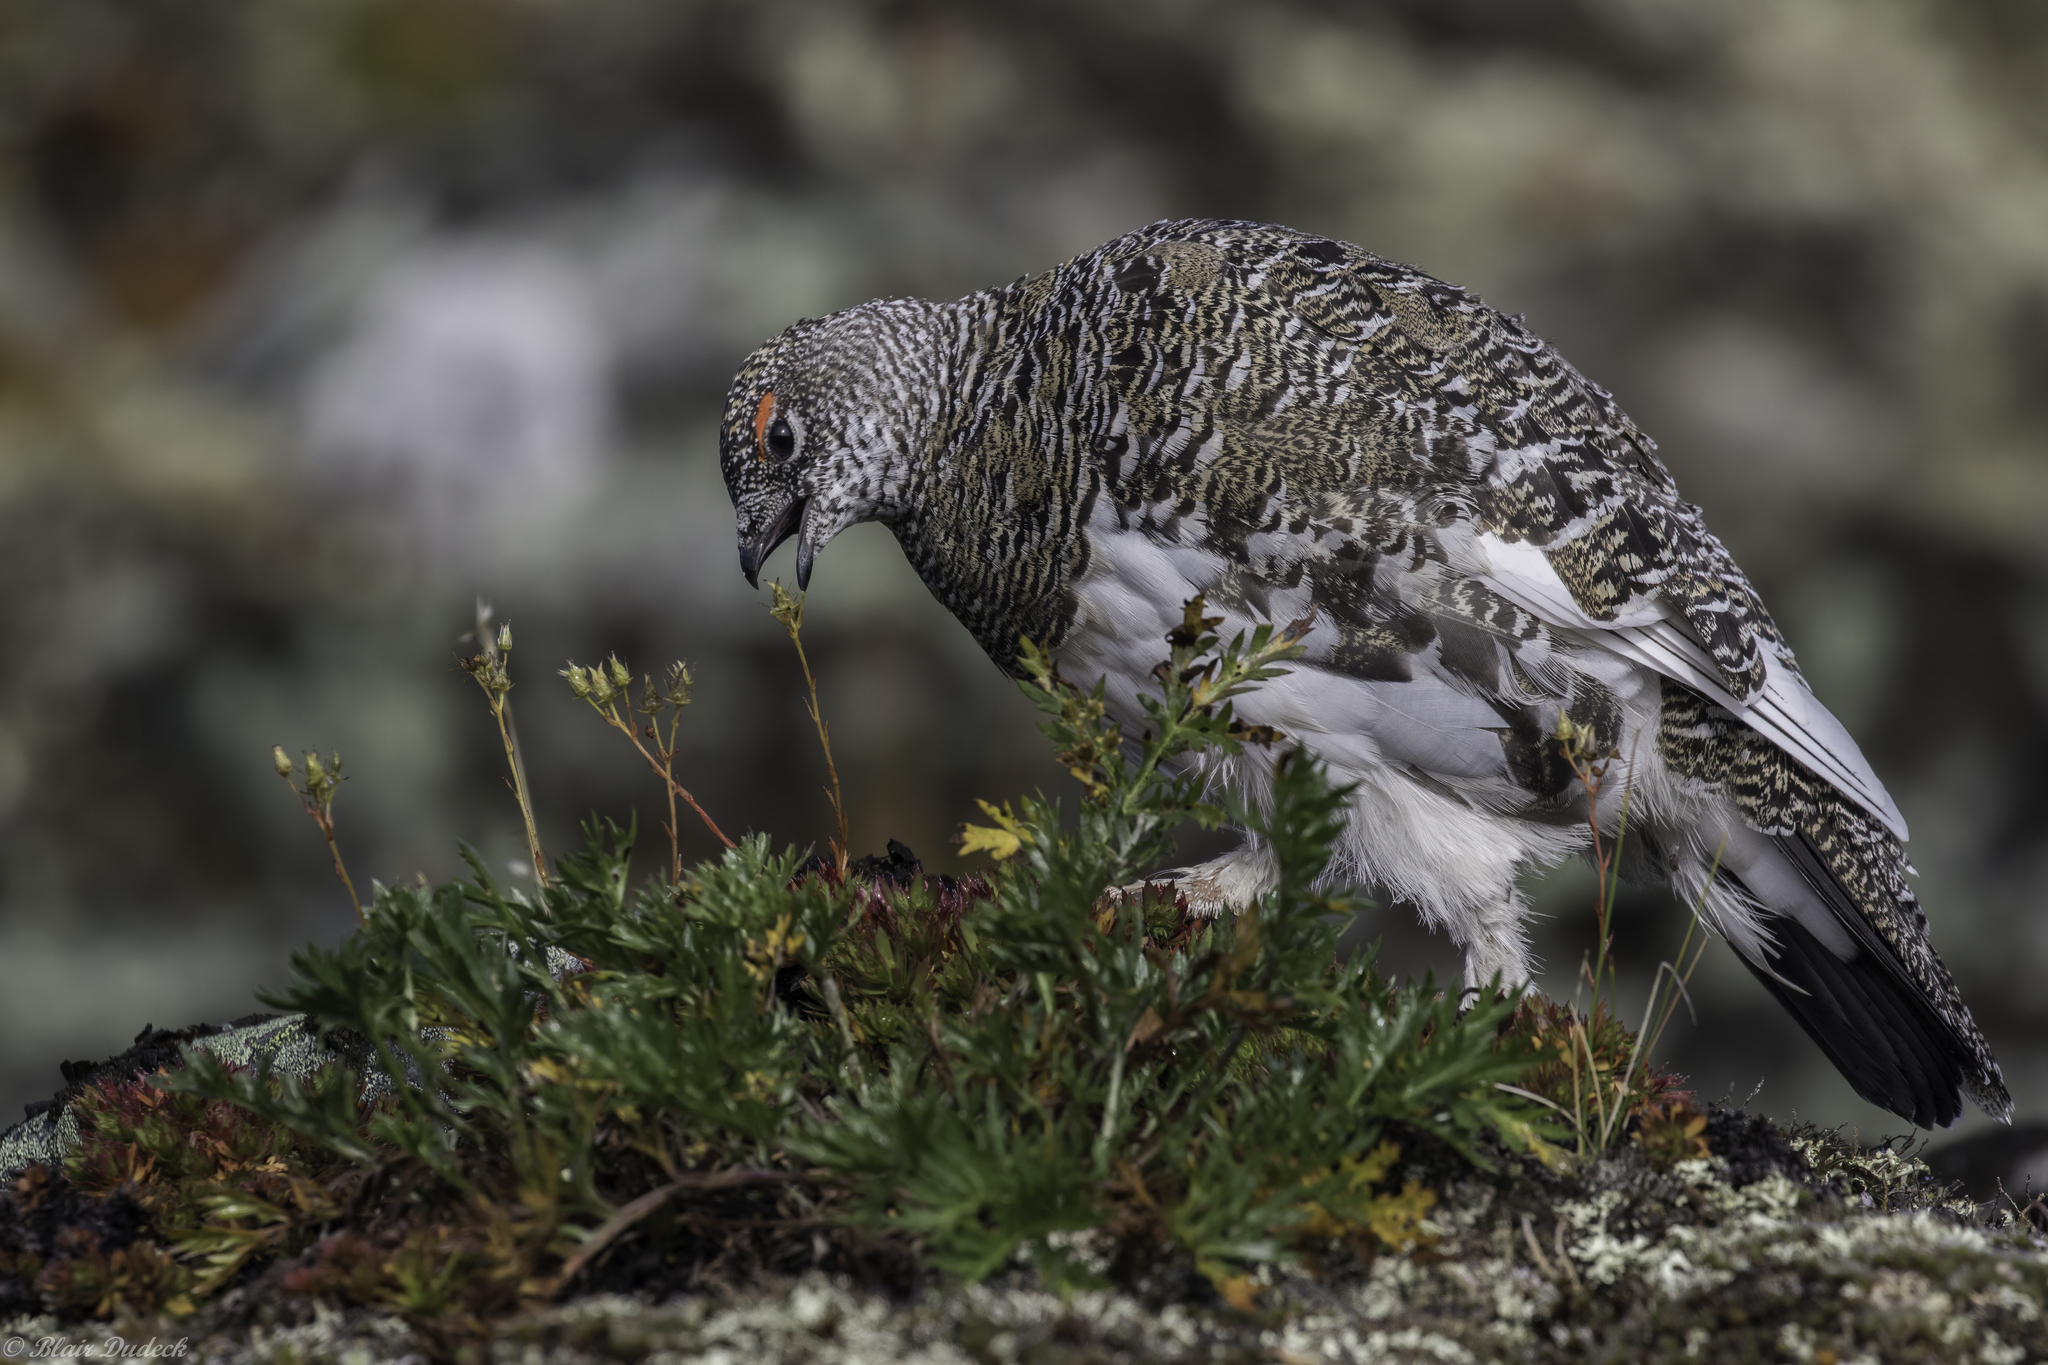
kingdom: Animalia
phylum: Chordata
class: Aves
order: Galliformes
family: Phasianidae
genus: Lagopus
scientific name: Lagopus muta
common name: Rock ptarmigan
